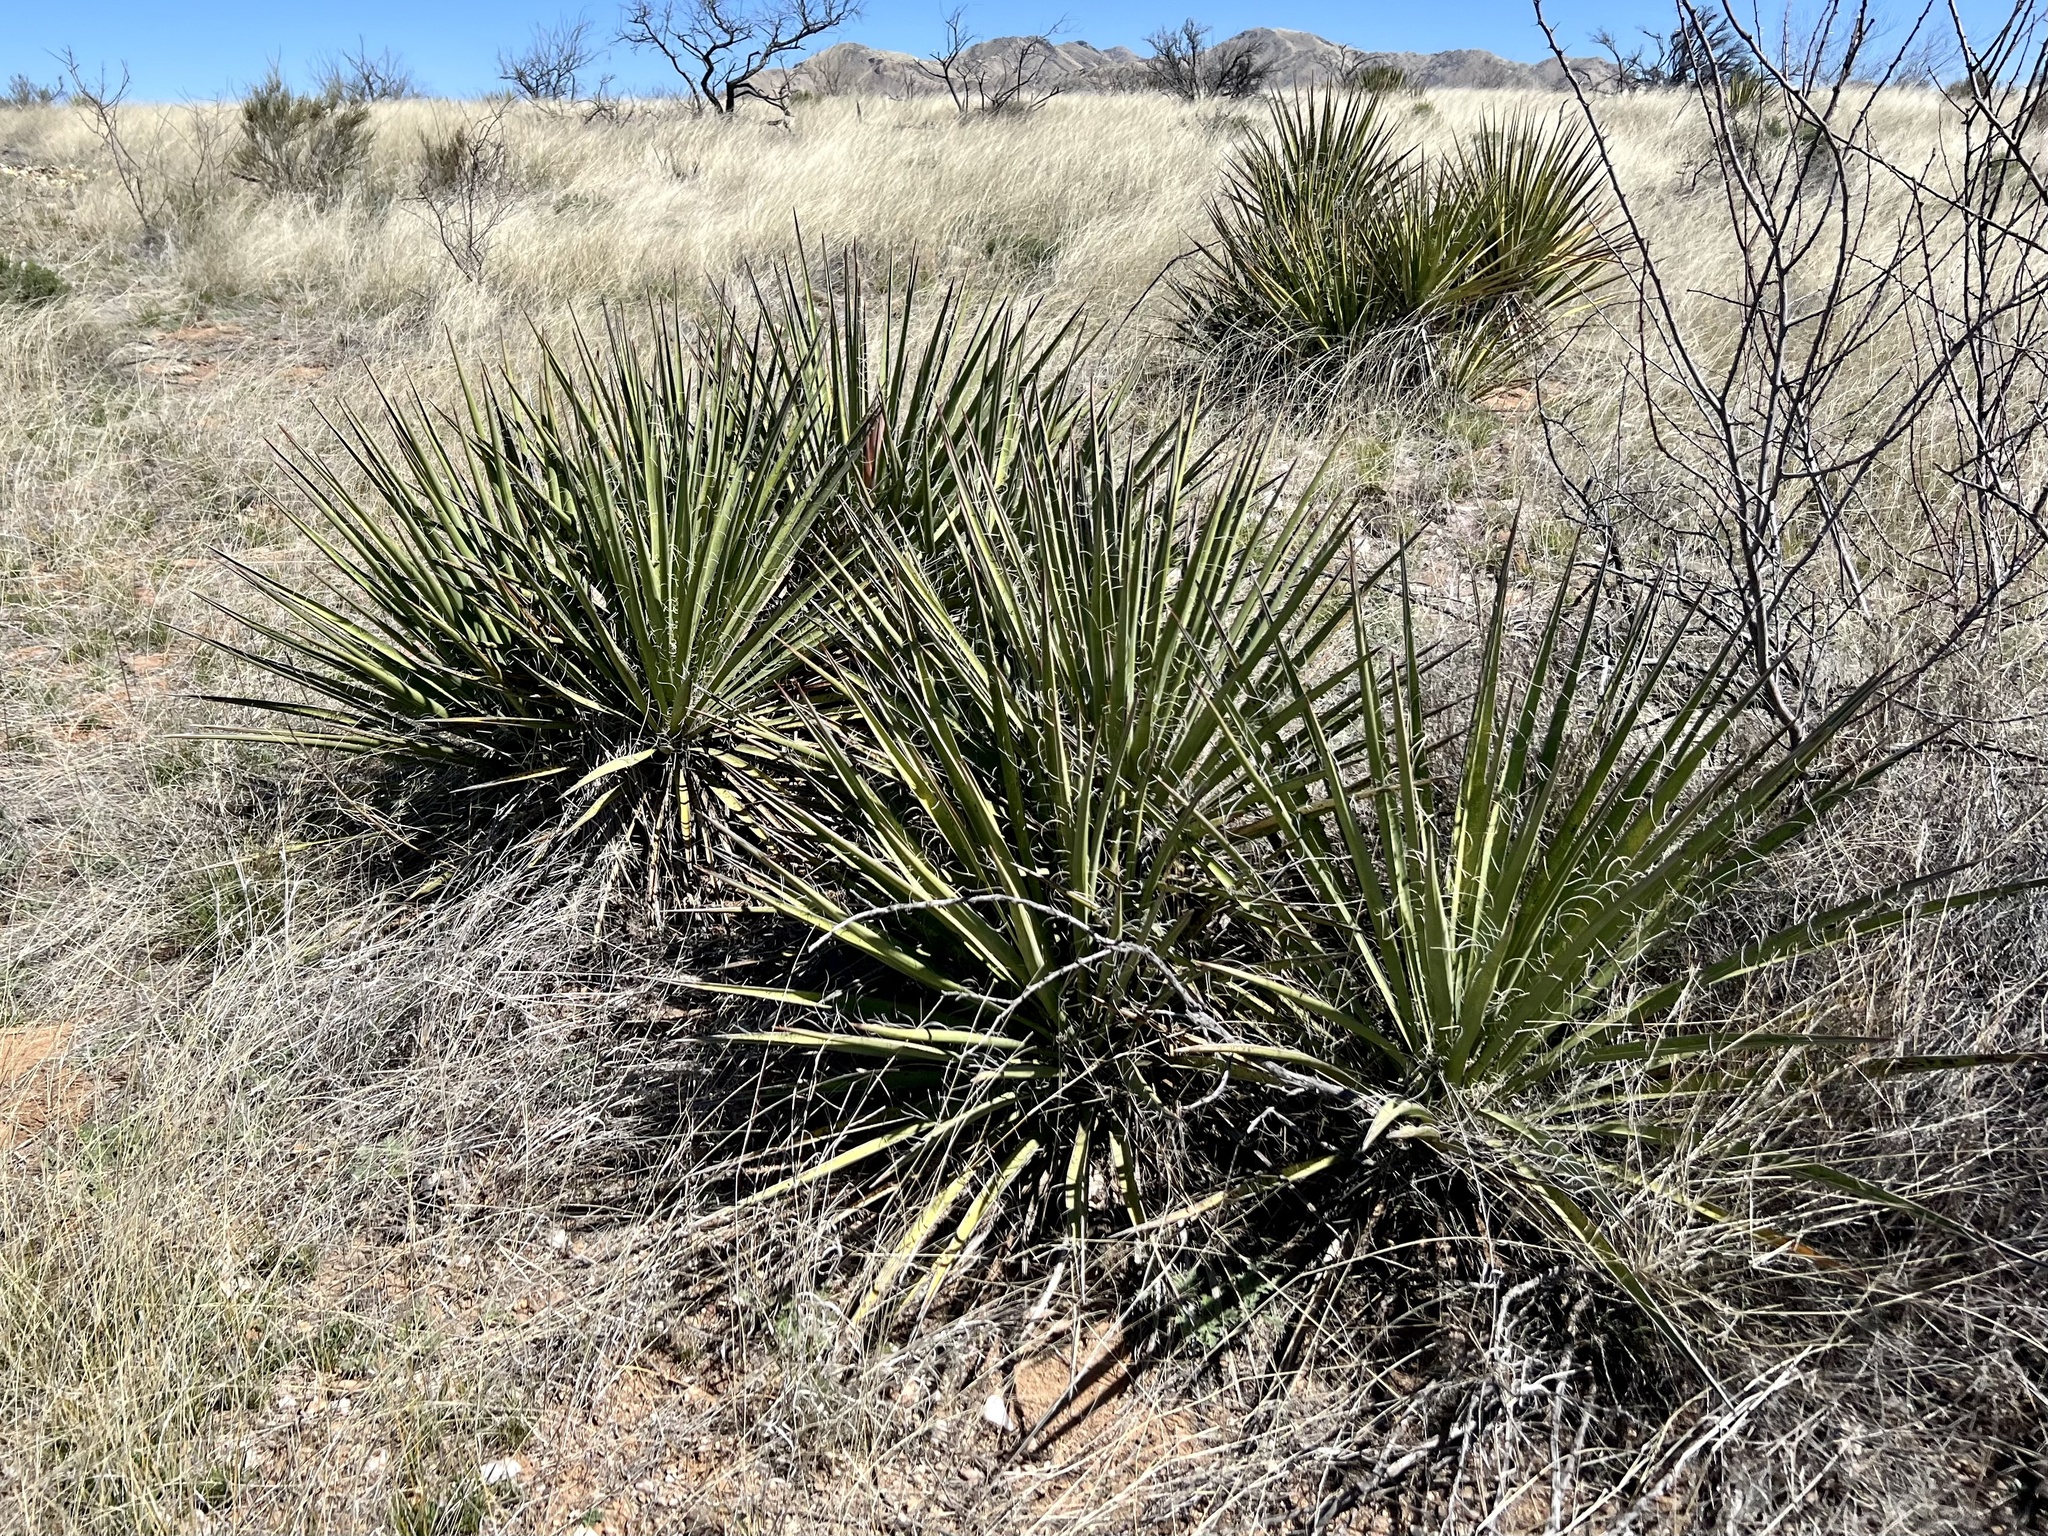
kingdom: Plantae
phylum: Tracheophyta
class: Liliopsida
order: Asparagales
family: Asparagaceae
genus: Yucca
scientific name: Yucca baccata
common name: Banana yucca
